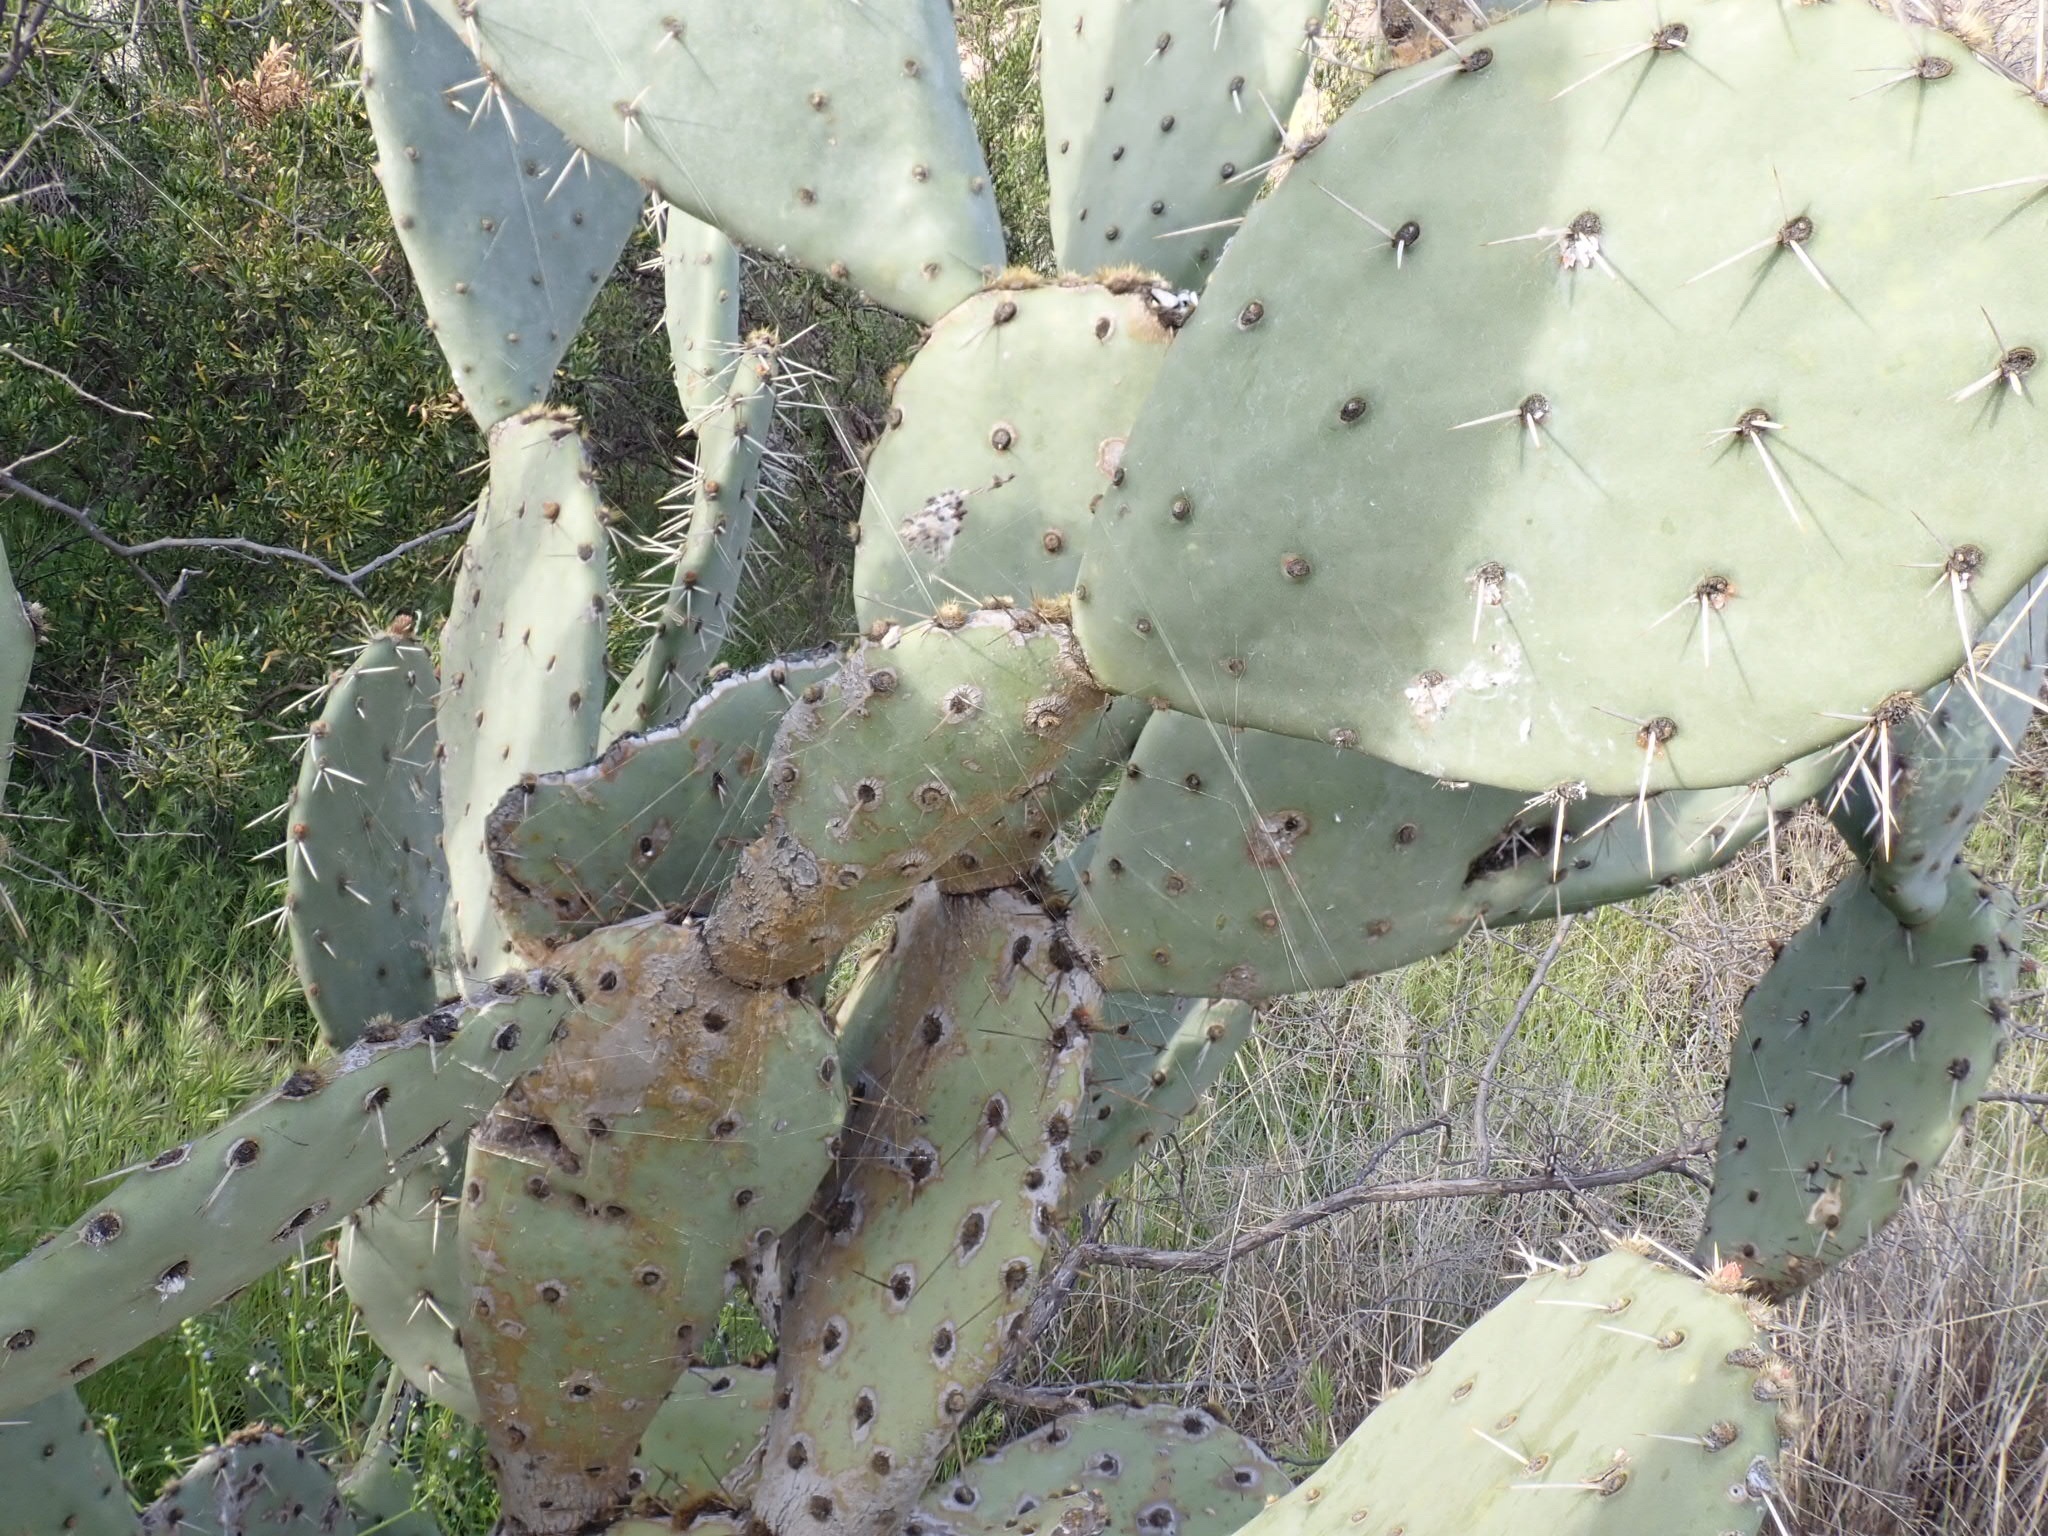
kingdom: Plantae
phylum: Tracheophyta
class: Magnoliopsida
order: Caryophyllales
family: Cactaceae
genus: Opuntia
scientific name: Opuntia engelmannii
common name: Cactus-apple
